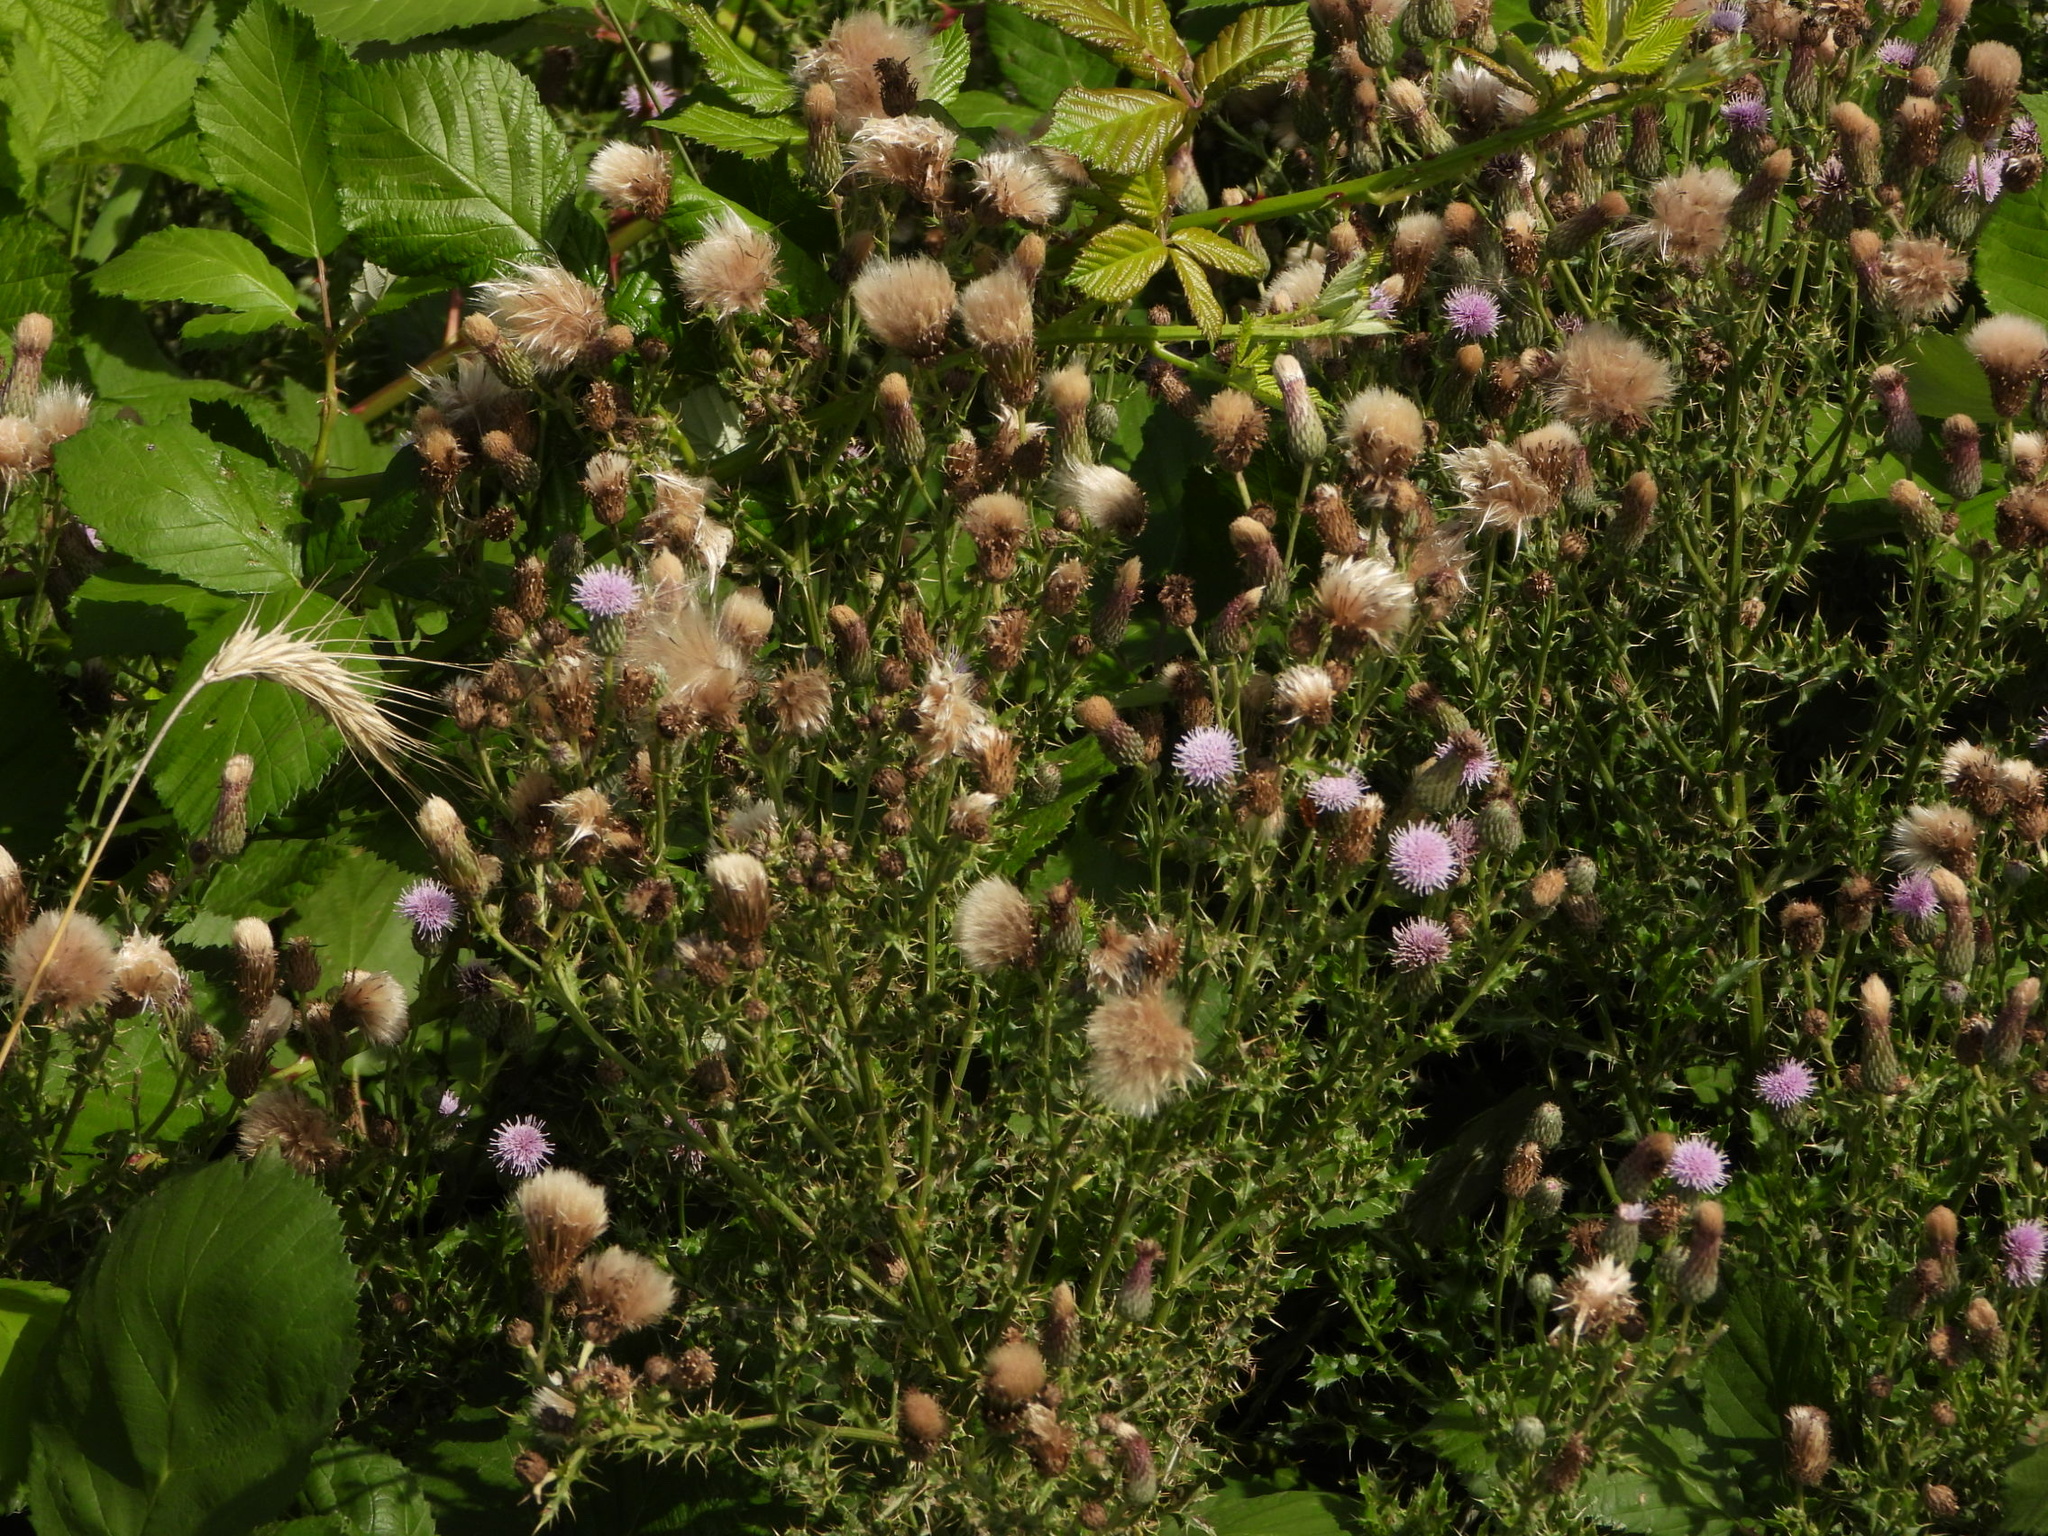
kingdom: Plantae
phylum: Tracheophyta
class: Magnoliopsida
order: Asterales
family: Asteraceae
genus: Cirsium
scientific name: Cirsium arvense
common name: Creeping thistle
